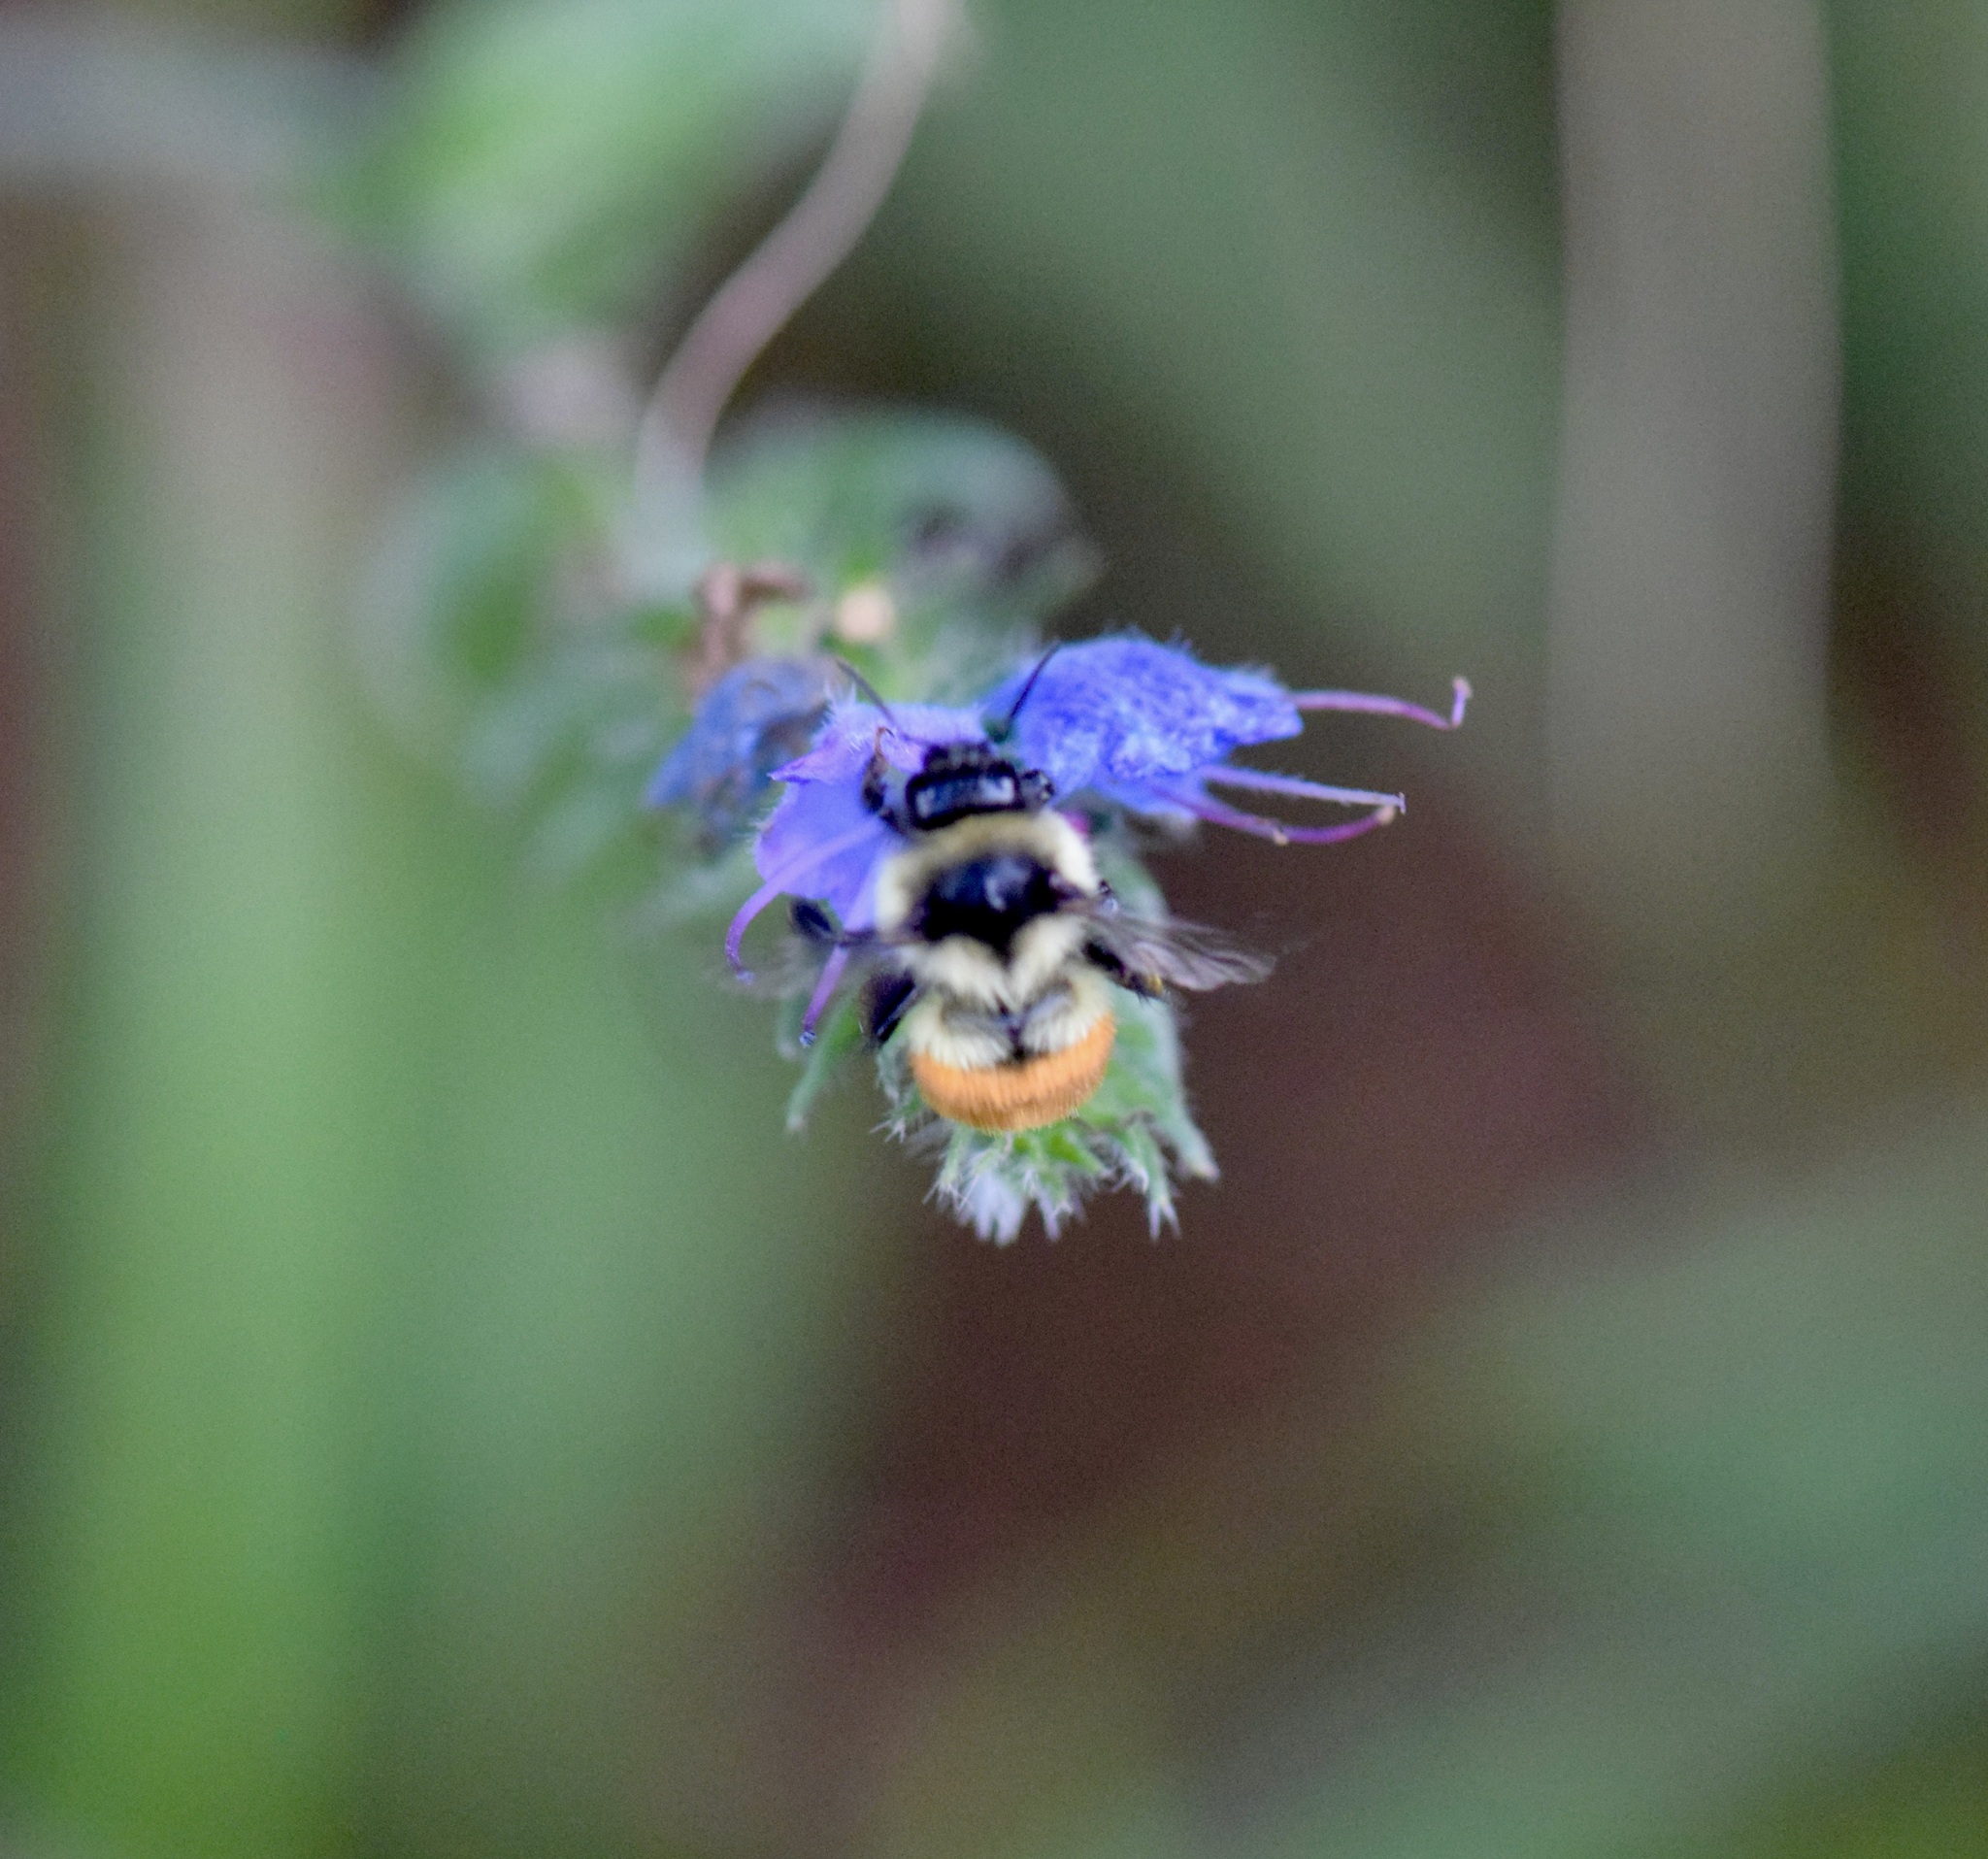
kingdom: Animalia
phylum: Arthropoda
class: Insecta
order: Hymenoptera
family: Apidae
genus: Bombus
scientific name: Bombus ternarius
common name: Tri-colored bumble bee
